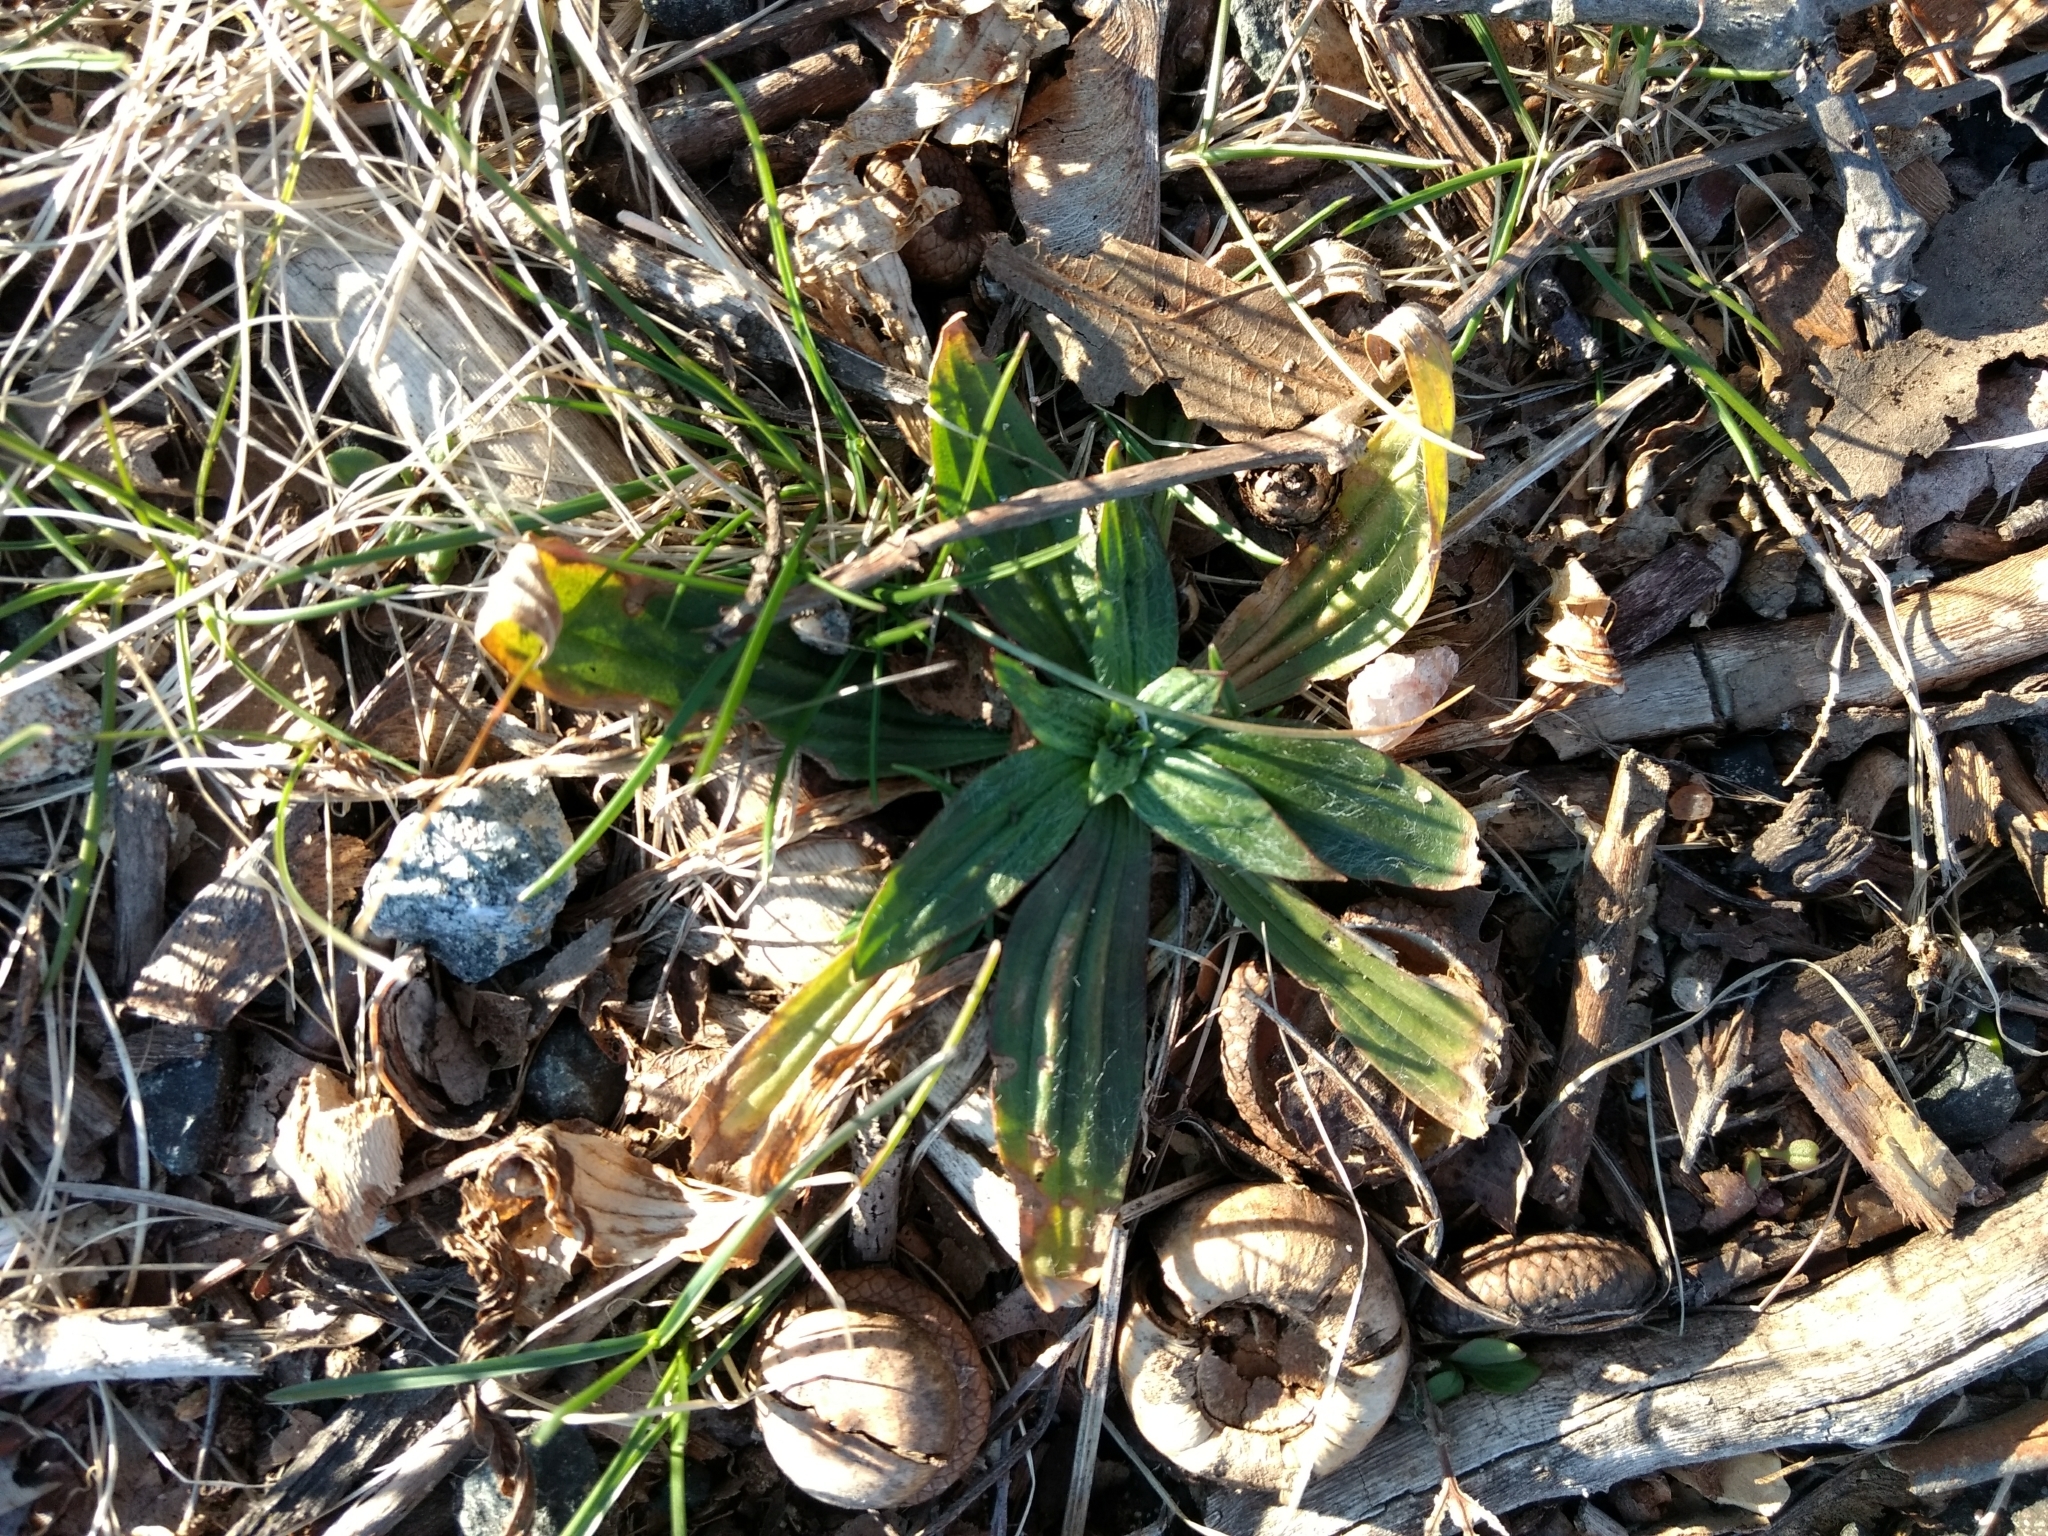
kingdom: Plantae
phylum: Tracheophyta
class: Magnoliopsida
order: Lamiales
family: Plantaginaceae
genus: Plantago
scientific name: Plantago lanceolata
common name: Ribwort plantain
